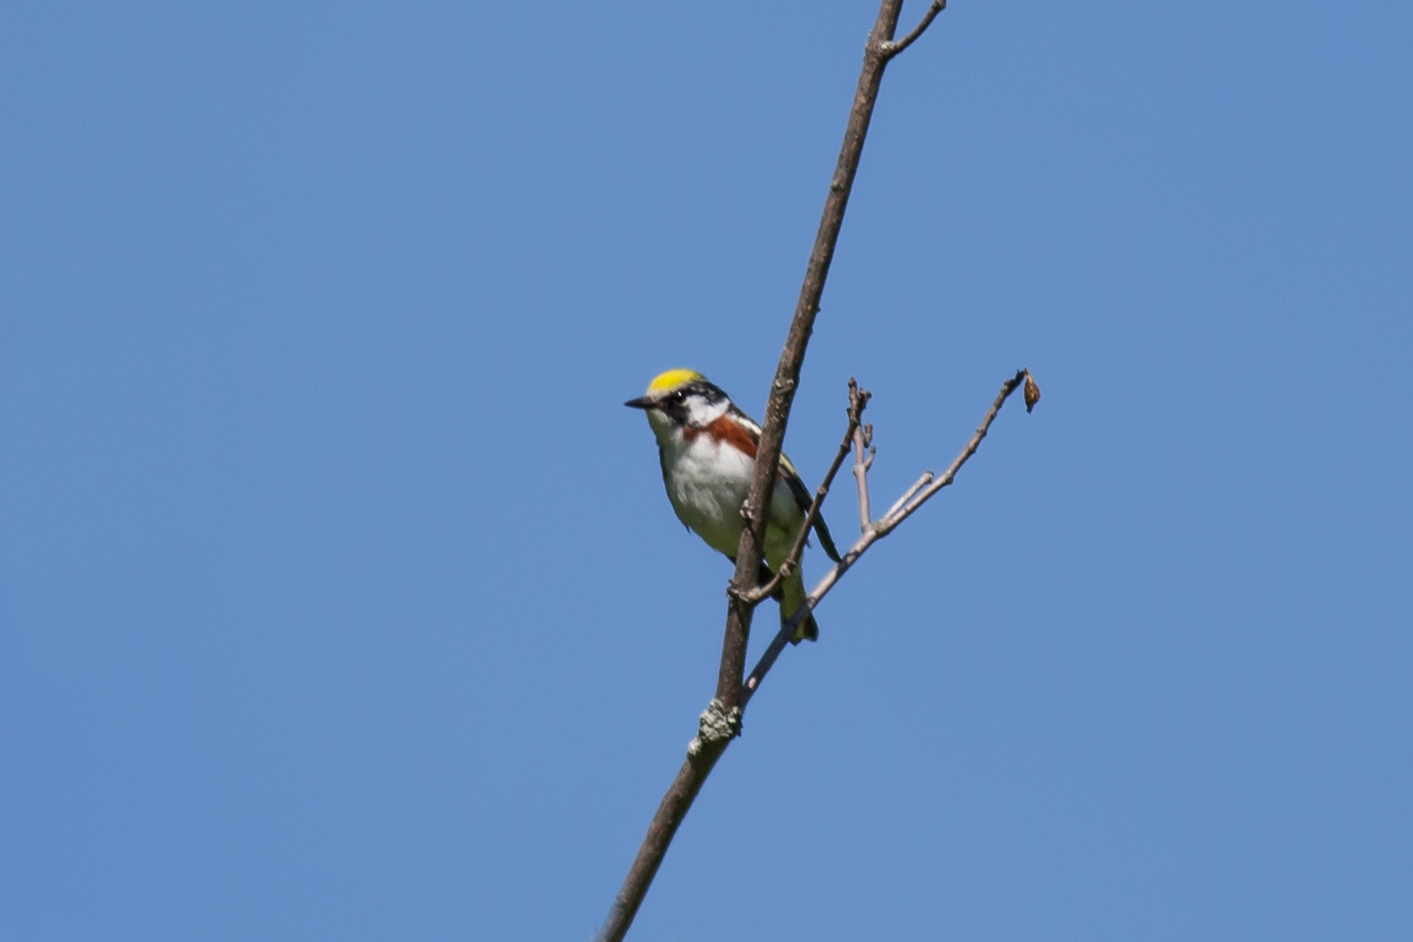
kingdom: Animalia
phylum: Chordata
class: Aves
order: Passeriformes
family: Parulidae
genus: Setophaga
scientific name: Setophaga pensylvanica
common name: Chestnut-sided warbler
